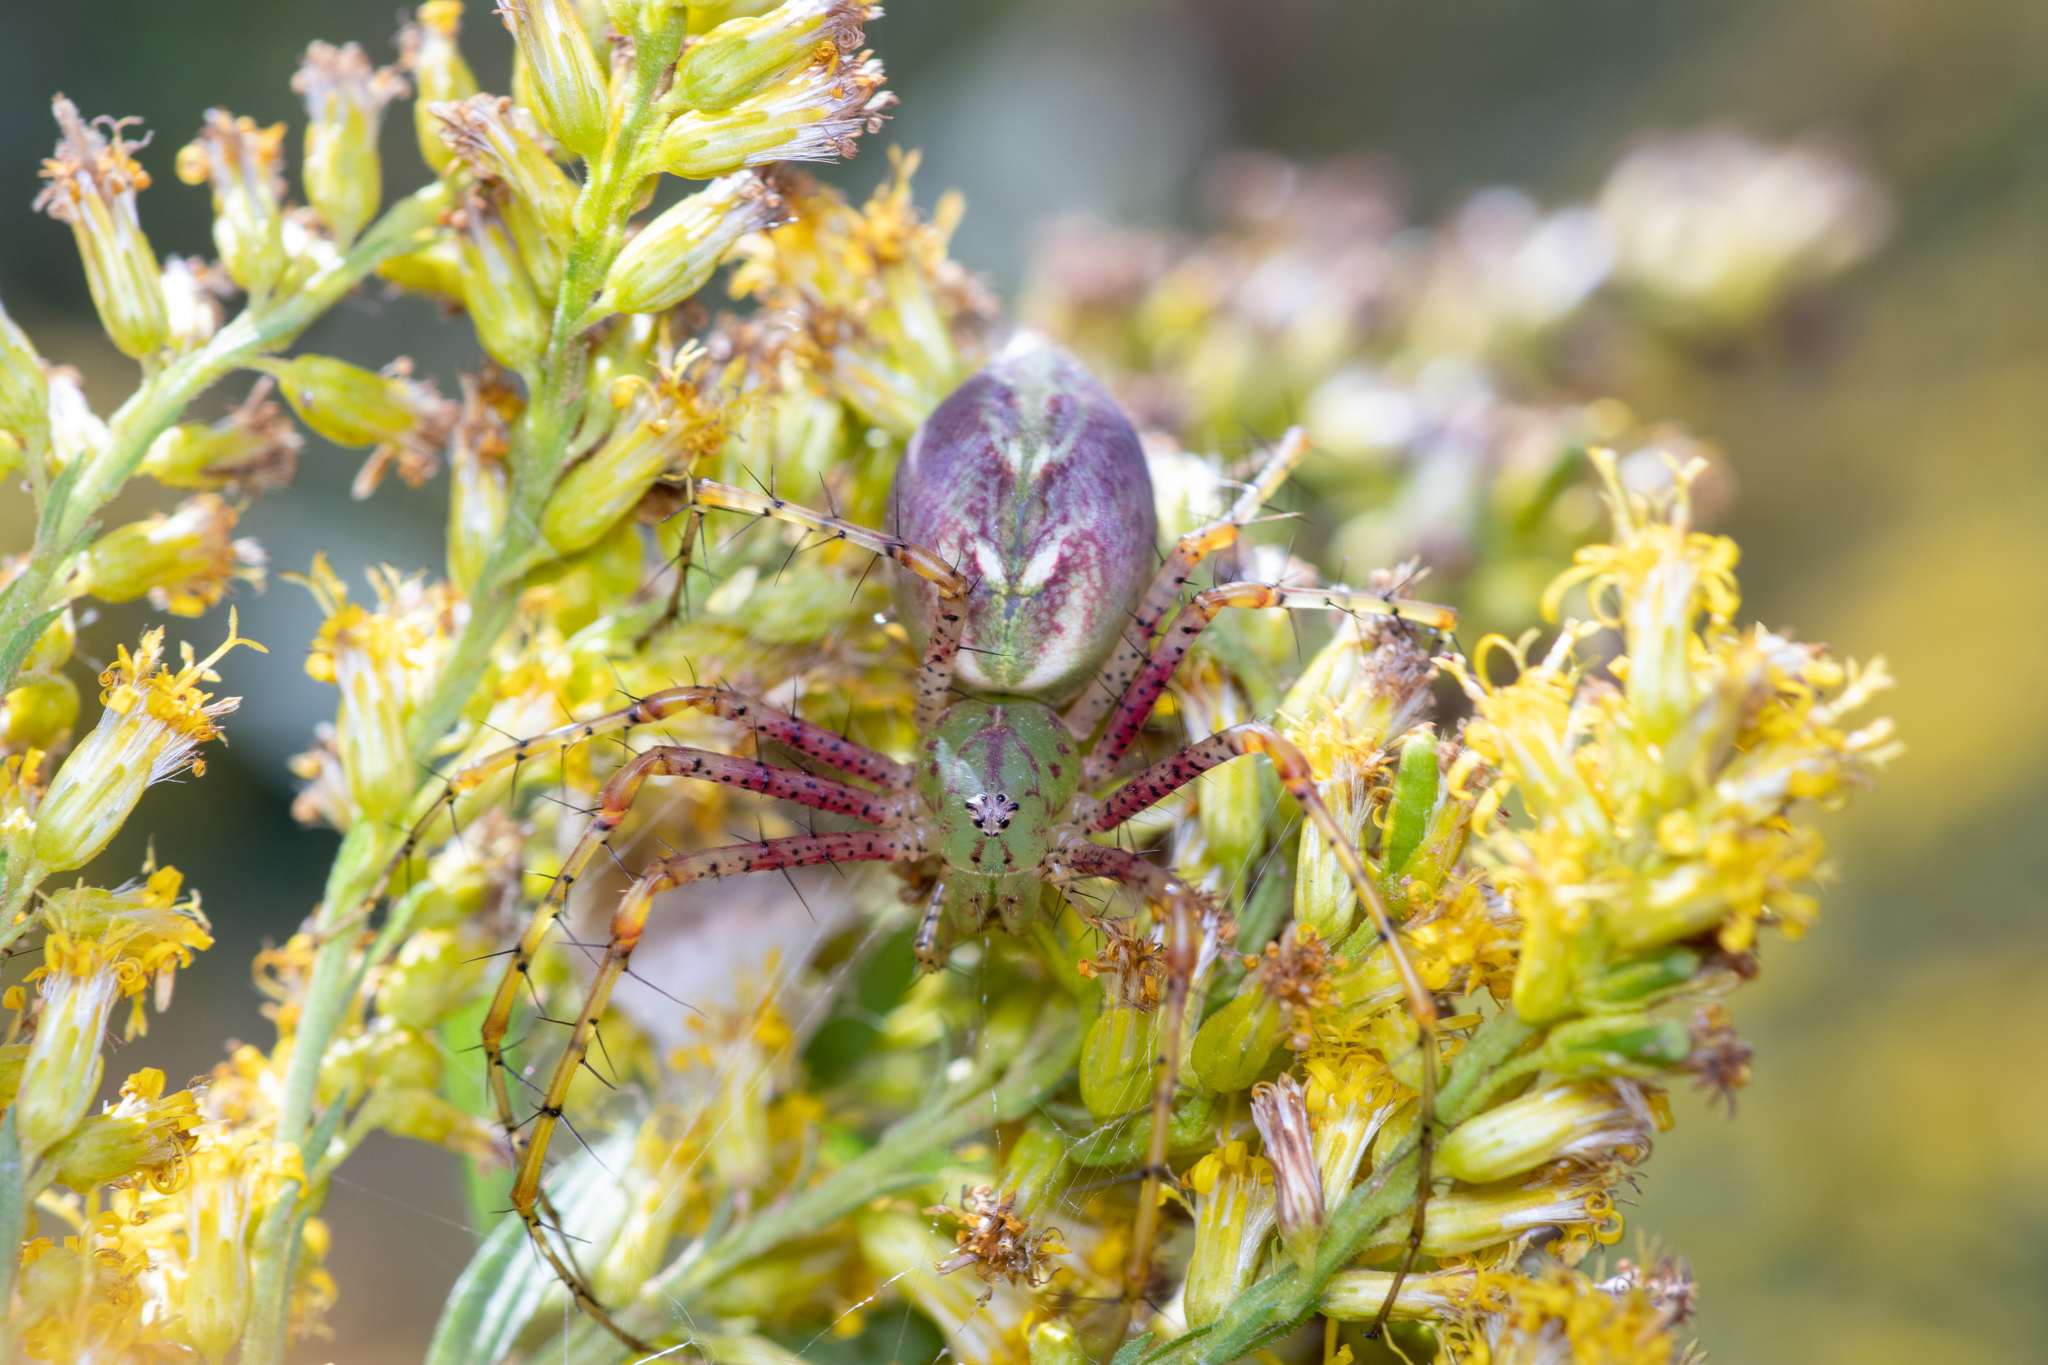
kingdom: Animalia
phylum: Arthropoda
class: Arachnida
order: Araneae
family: Oxyopidae
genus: Peucetia
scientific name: Peucetia viridans
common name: Lynx spiders
